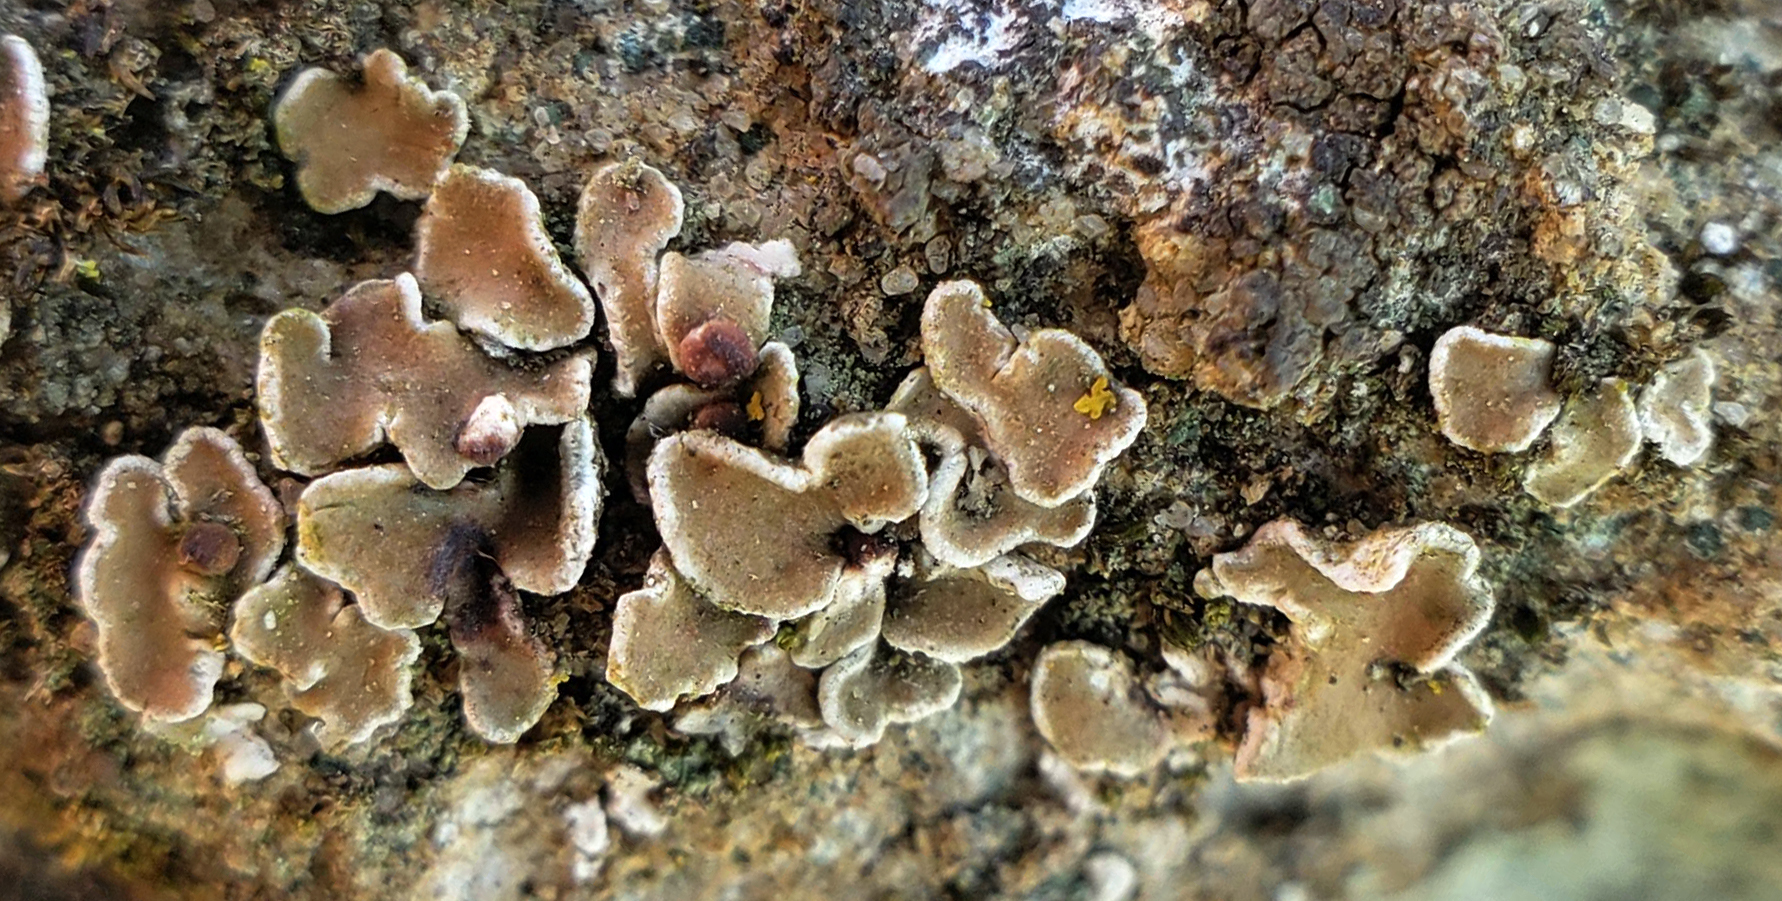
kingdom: Fungi
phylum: Ascomycota
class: Lecanoromycetes
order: Lecanorales
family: Psoraceae
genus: Psora
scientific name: Psora pseudorussellii
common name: Bordered scale lichen
